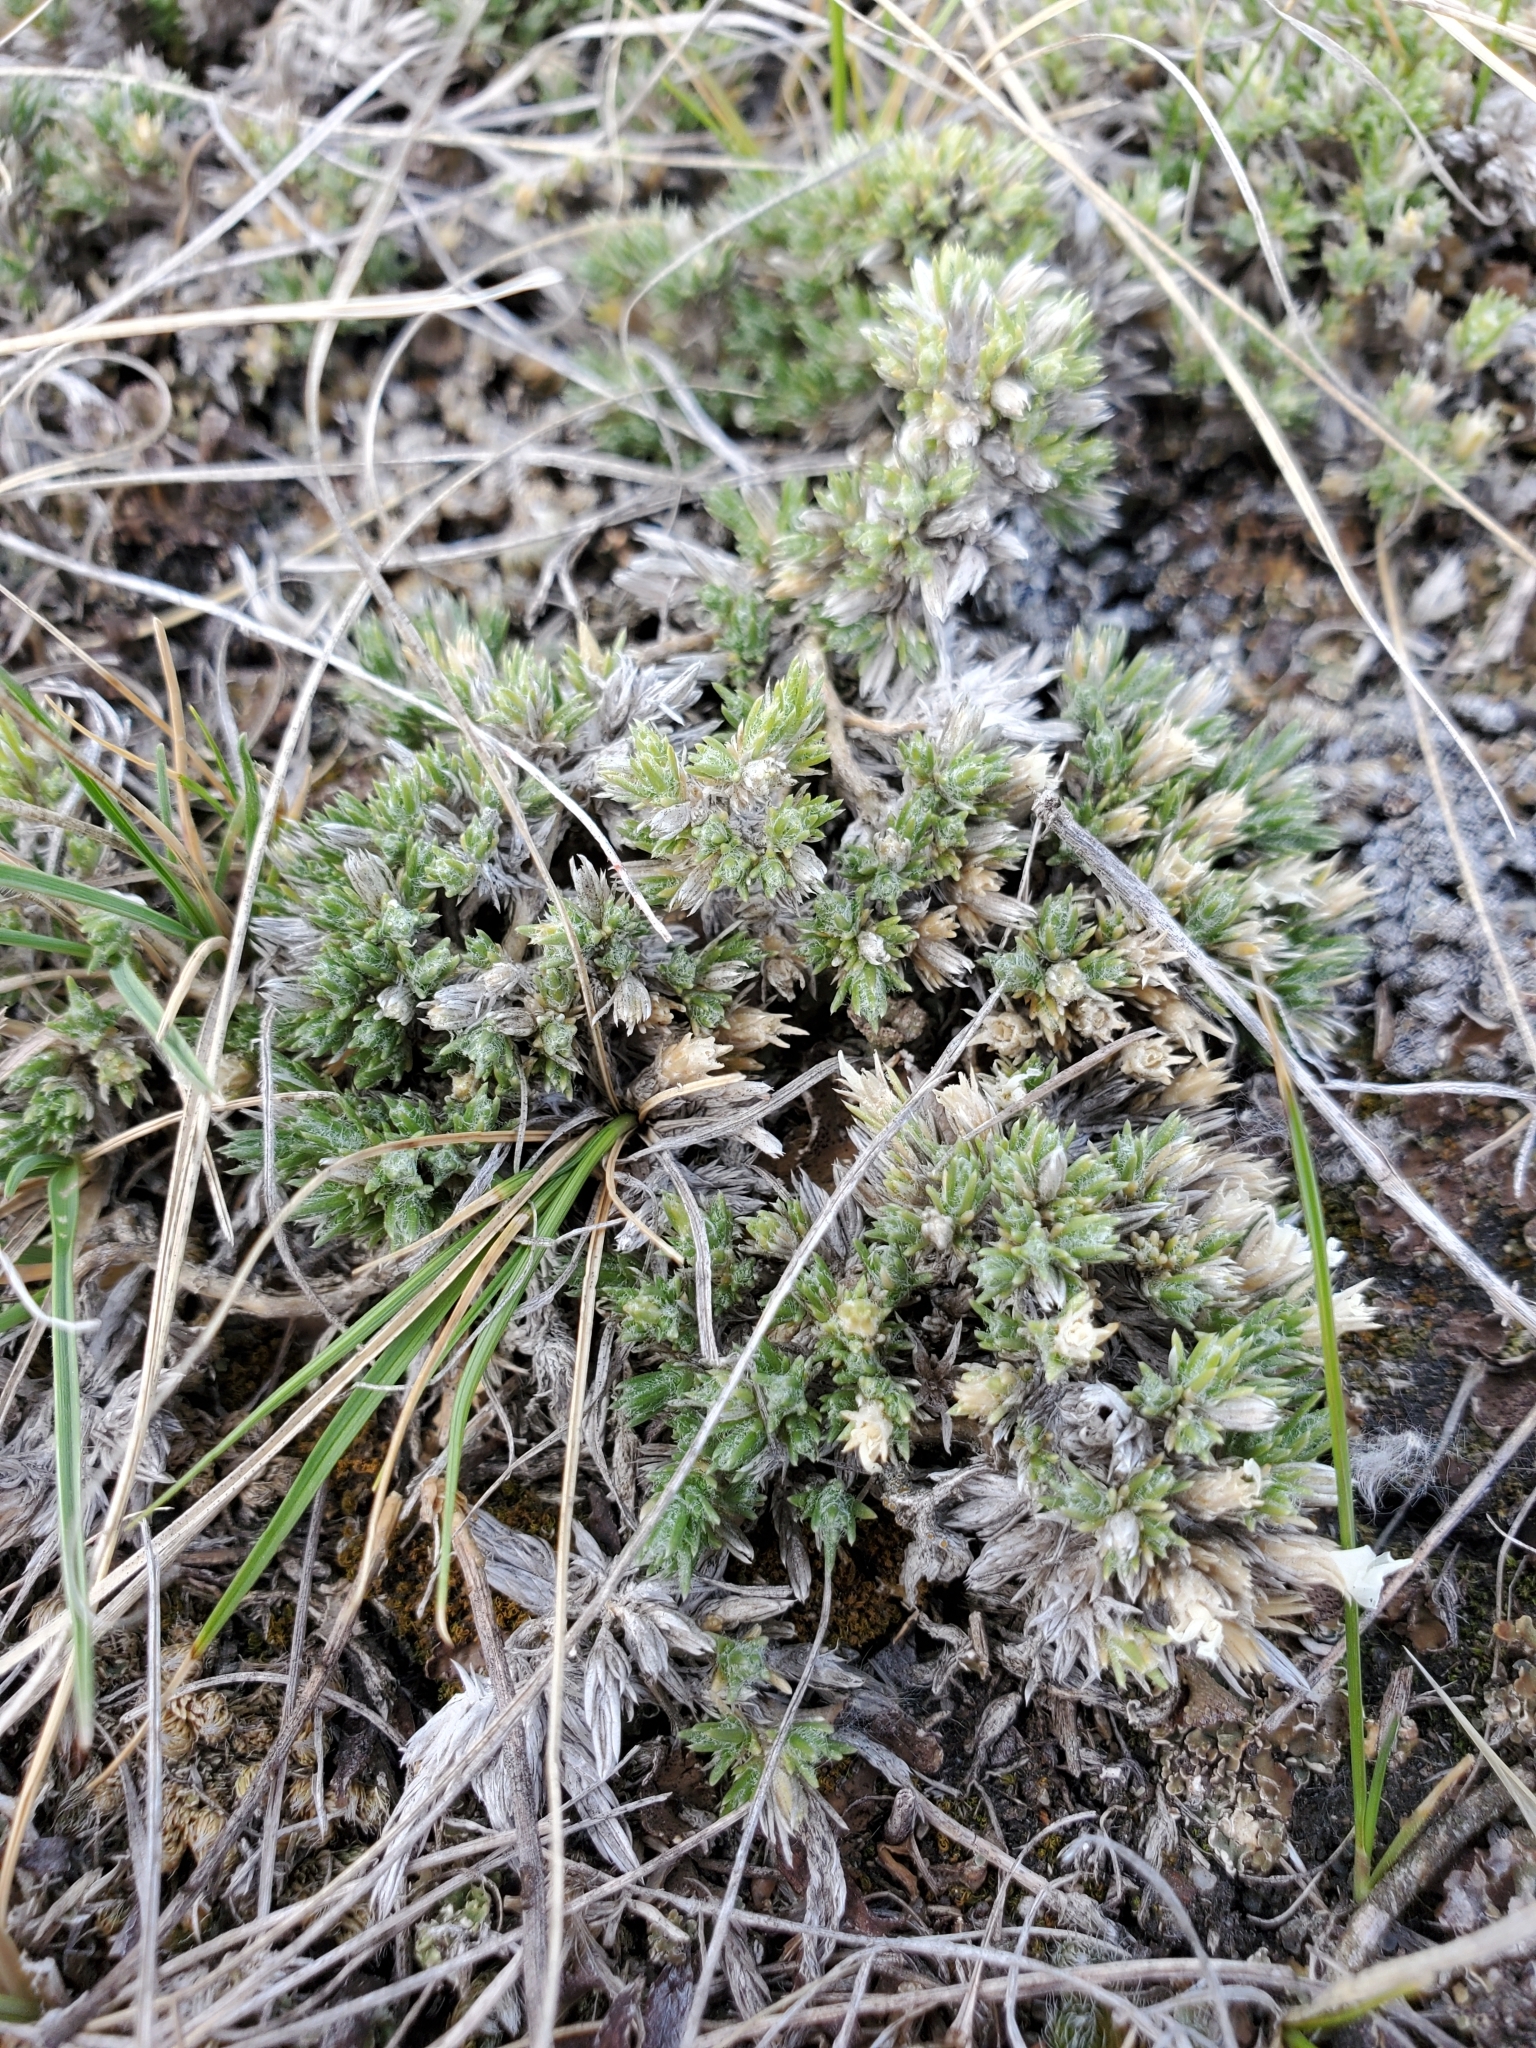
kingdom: Plantae
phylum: Tracheophyta
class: Magnoliopsida
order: Ericales
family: Polemoniaceae
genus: Phlox
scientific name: Phlox hoodii
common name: Moss phlox
